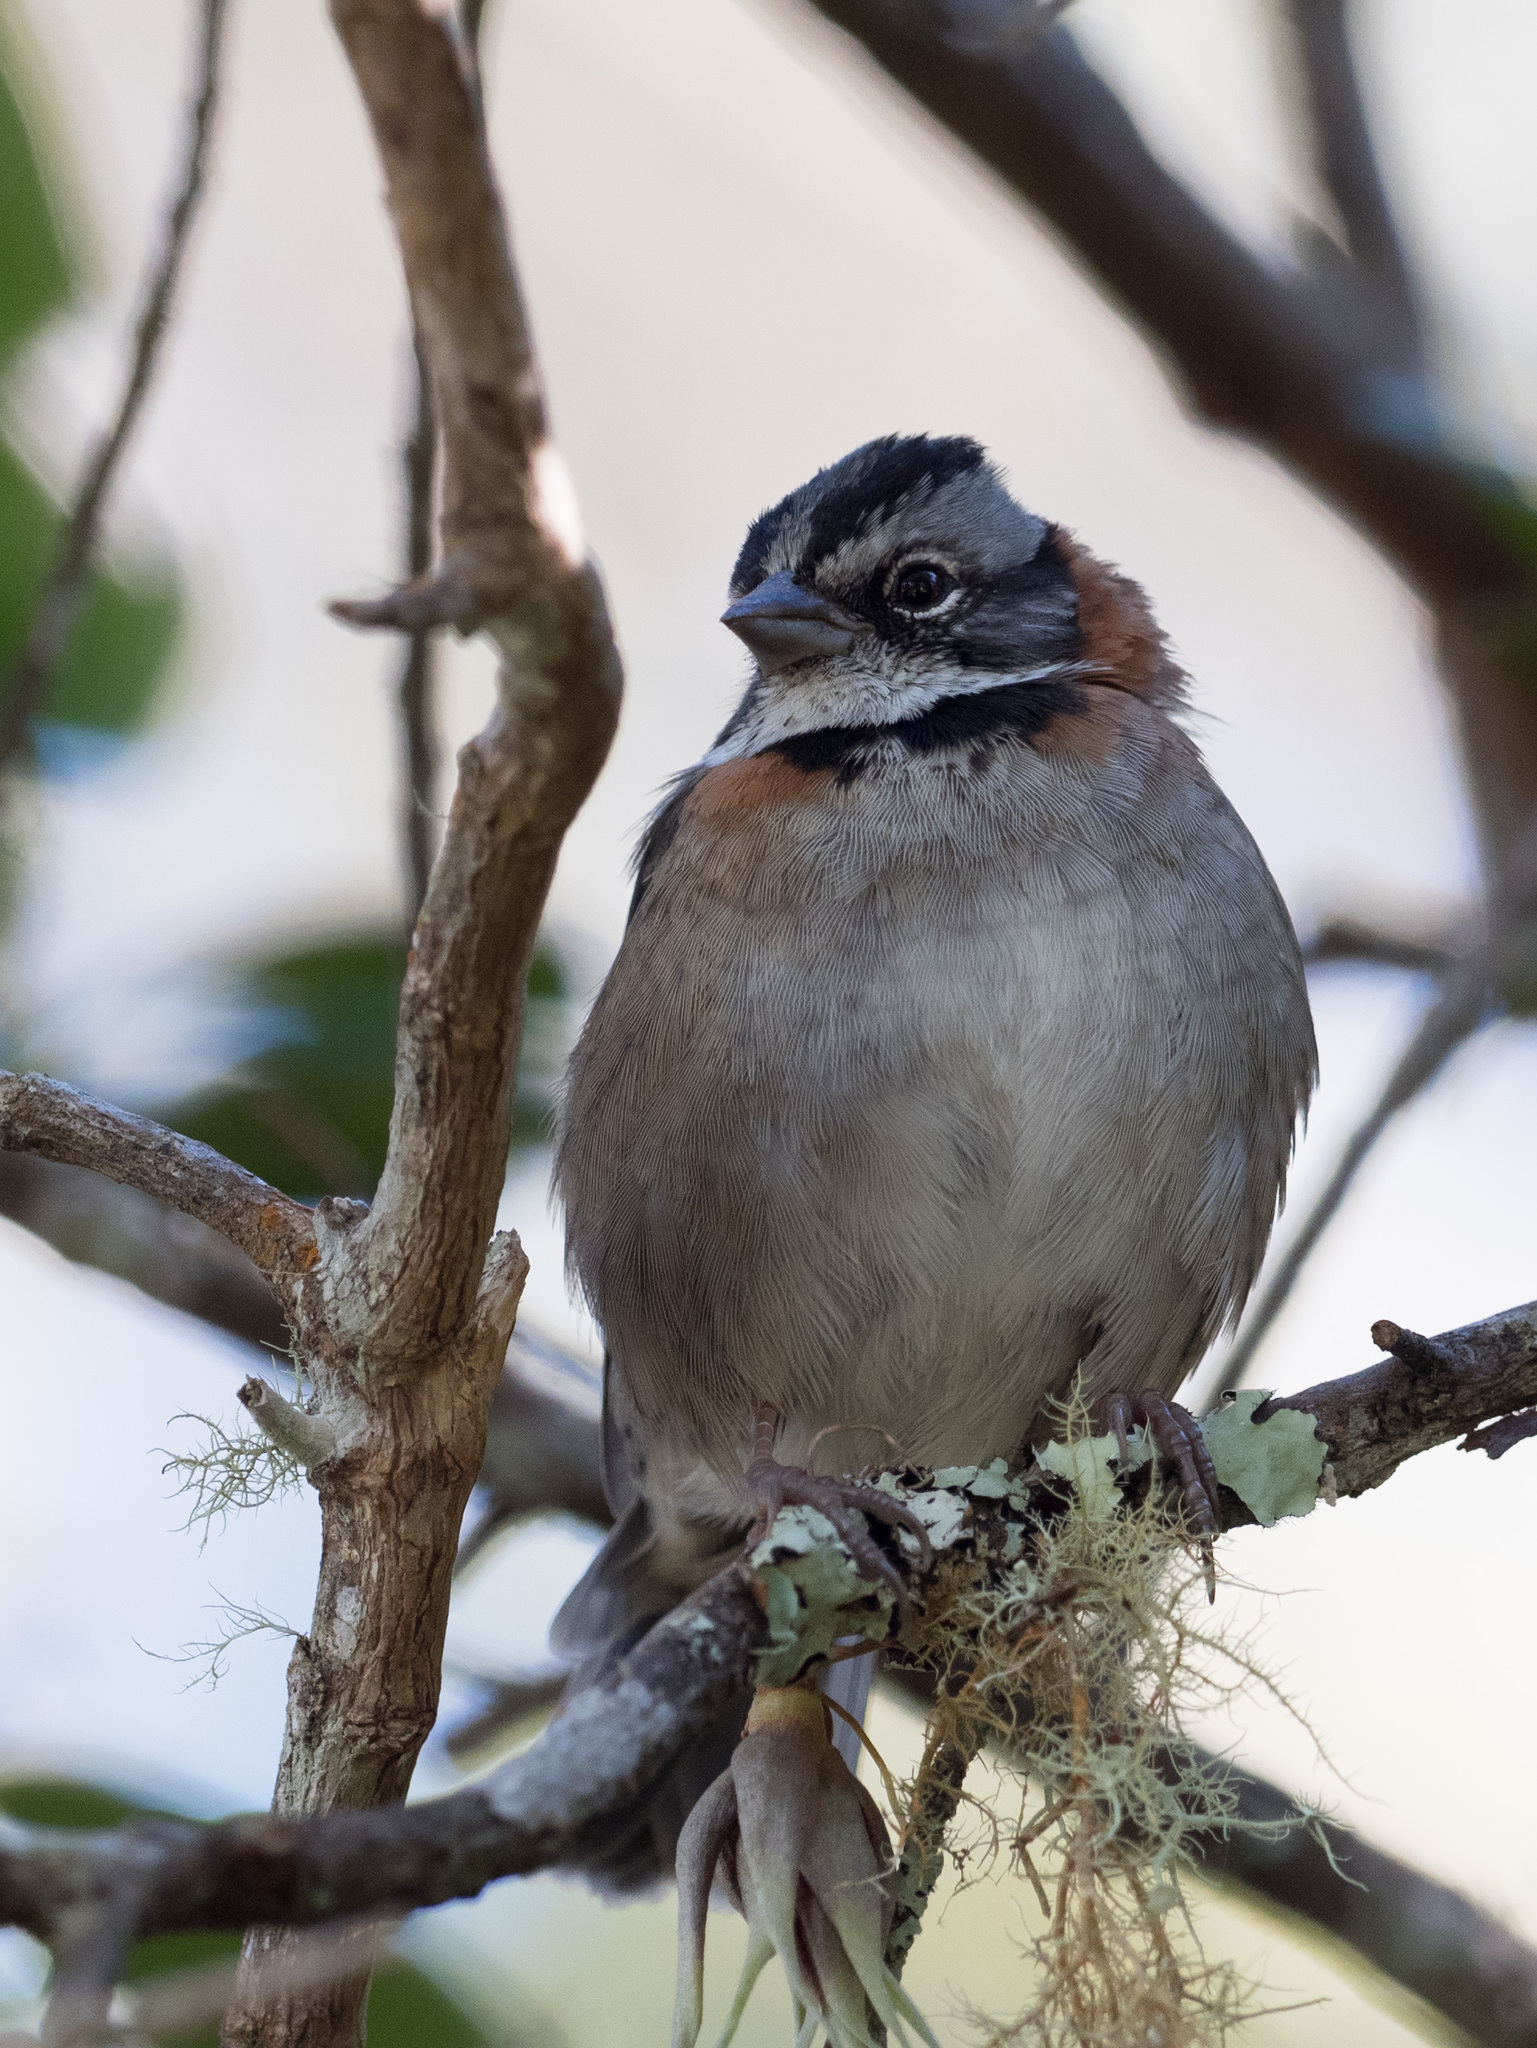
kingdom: Animalia
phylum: Chordata
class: Aves
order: Passeriformes
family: Passerellidae
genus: Zonotrichia
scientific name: Zonotrichia capensis
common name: Rufous-collared sparrow
